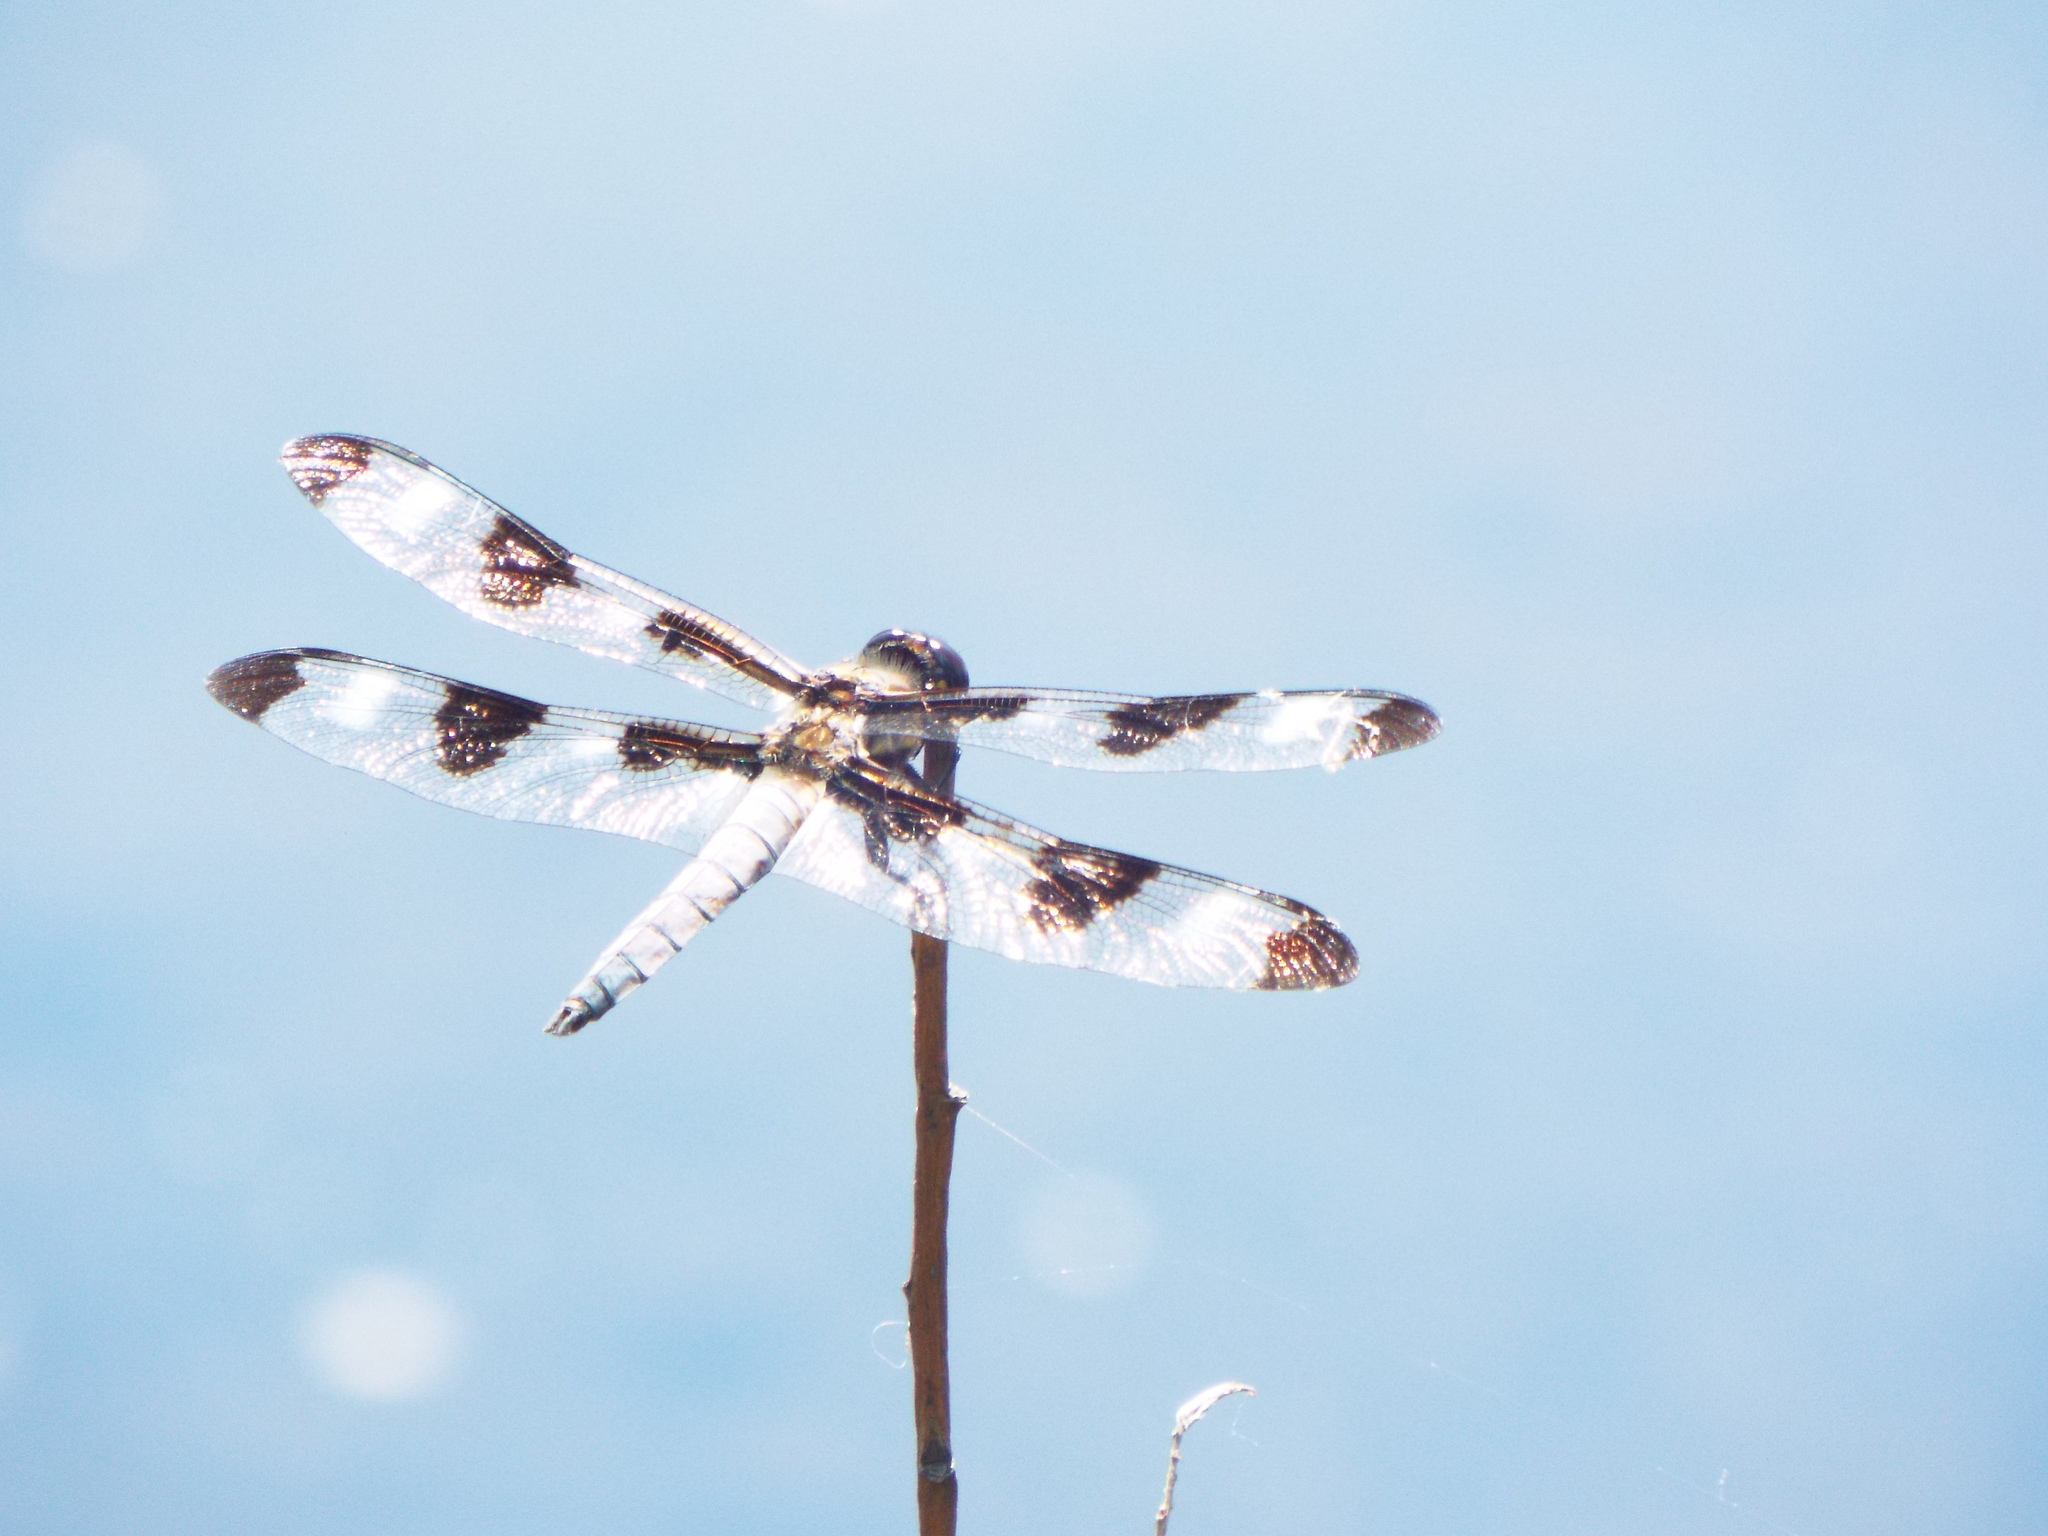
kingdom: Animalia
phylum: Arthropoda
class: Insecta
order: Odonata
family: Libellulidae
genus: Libellula
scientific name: Libellula pulchella
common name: Twelve-spotted skimmer
